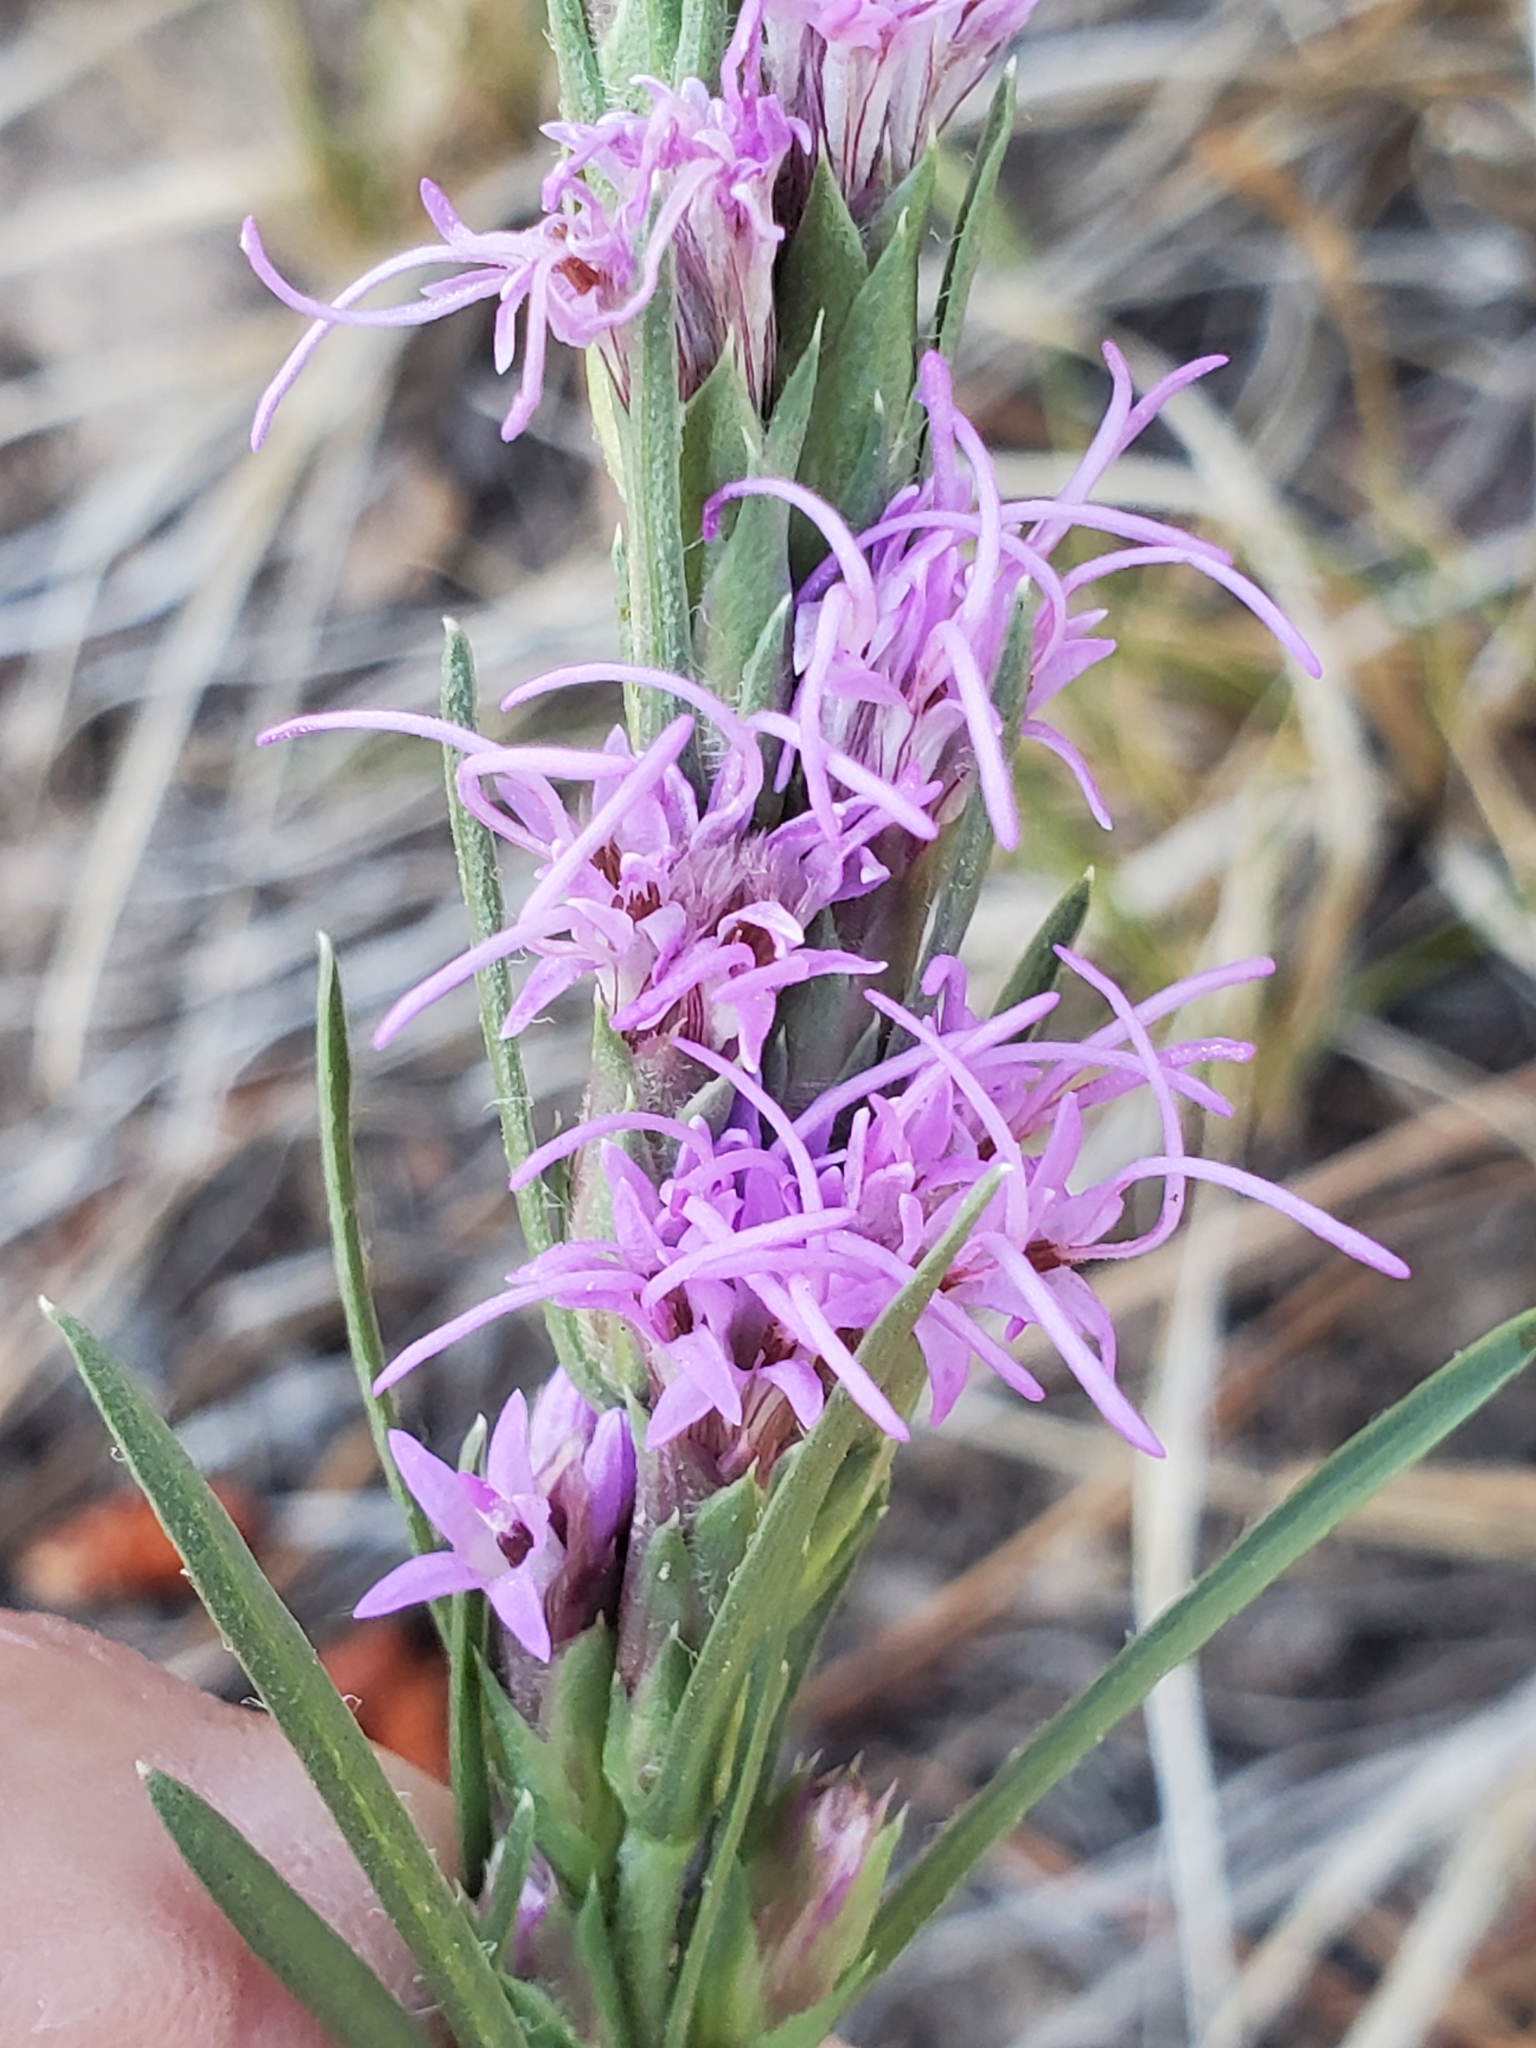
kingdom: Plantae
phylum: Tracheophyta
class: Magnoliopsida
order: Asterales
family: Asteraceae
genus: Liatris
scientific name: Liatris punctata
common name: Dotted gayfeather
